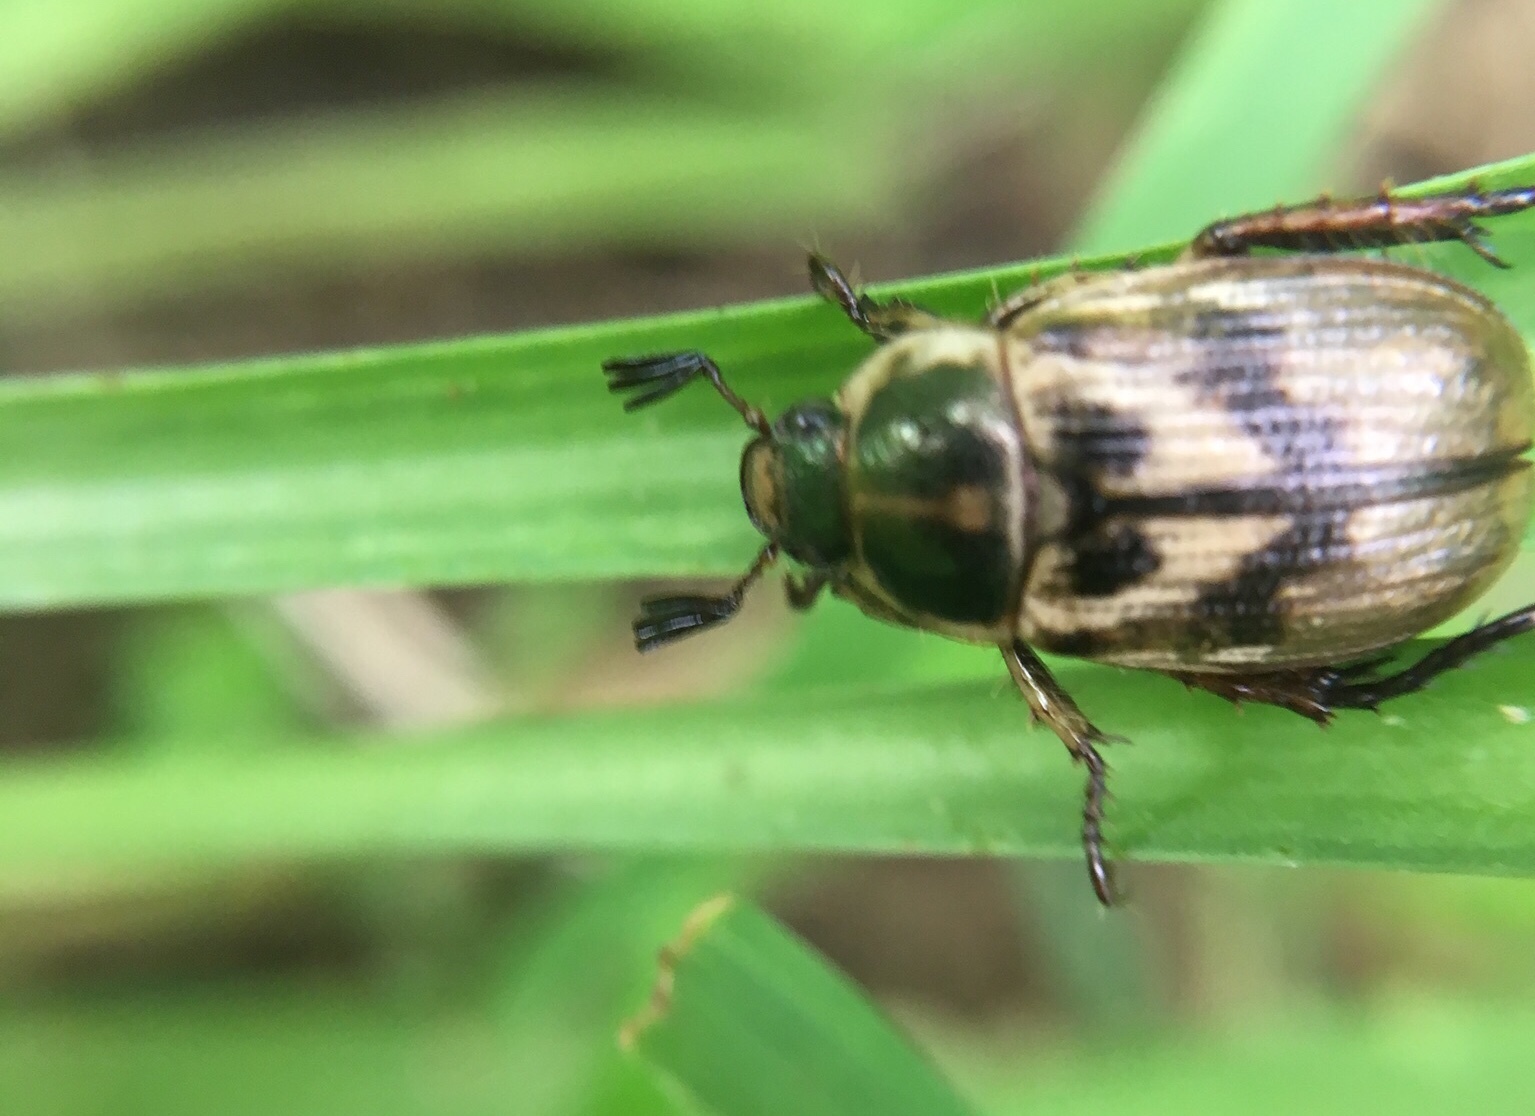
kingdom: Animalia
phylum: Arthropoda
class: Insecta
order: Coleoptera
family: Scarabaeidae
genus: Exomala
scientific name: Exomala orientalis
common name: Oriental beetle
